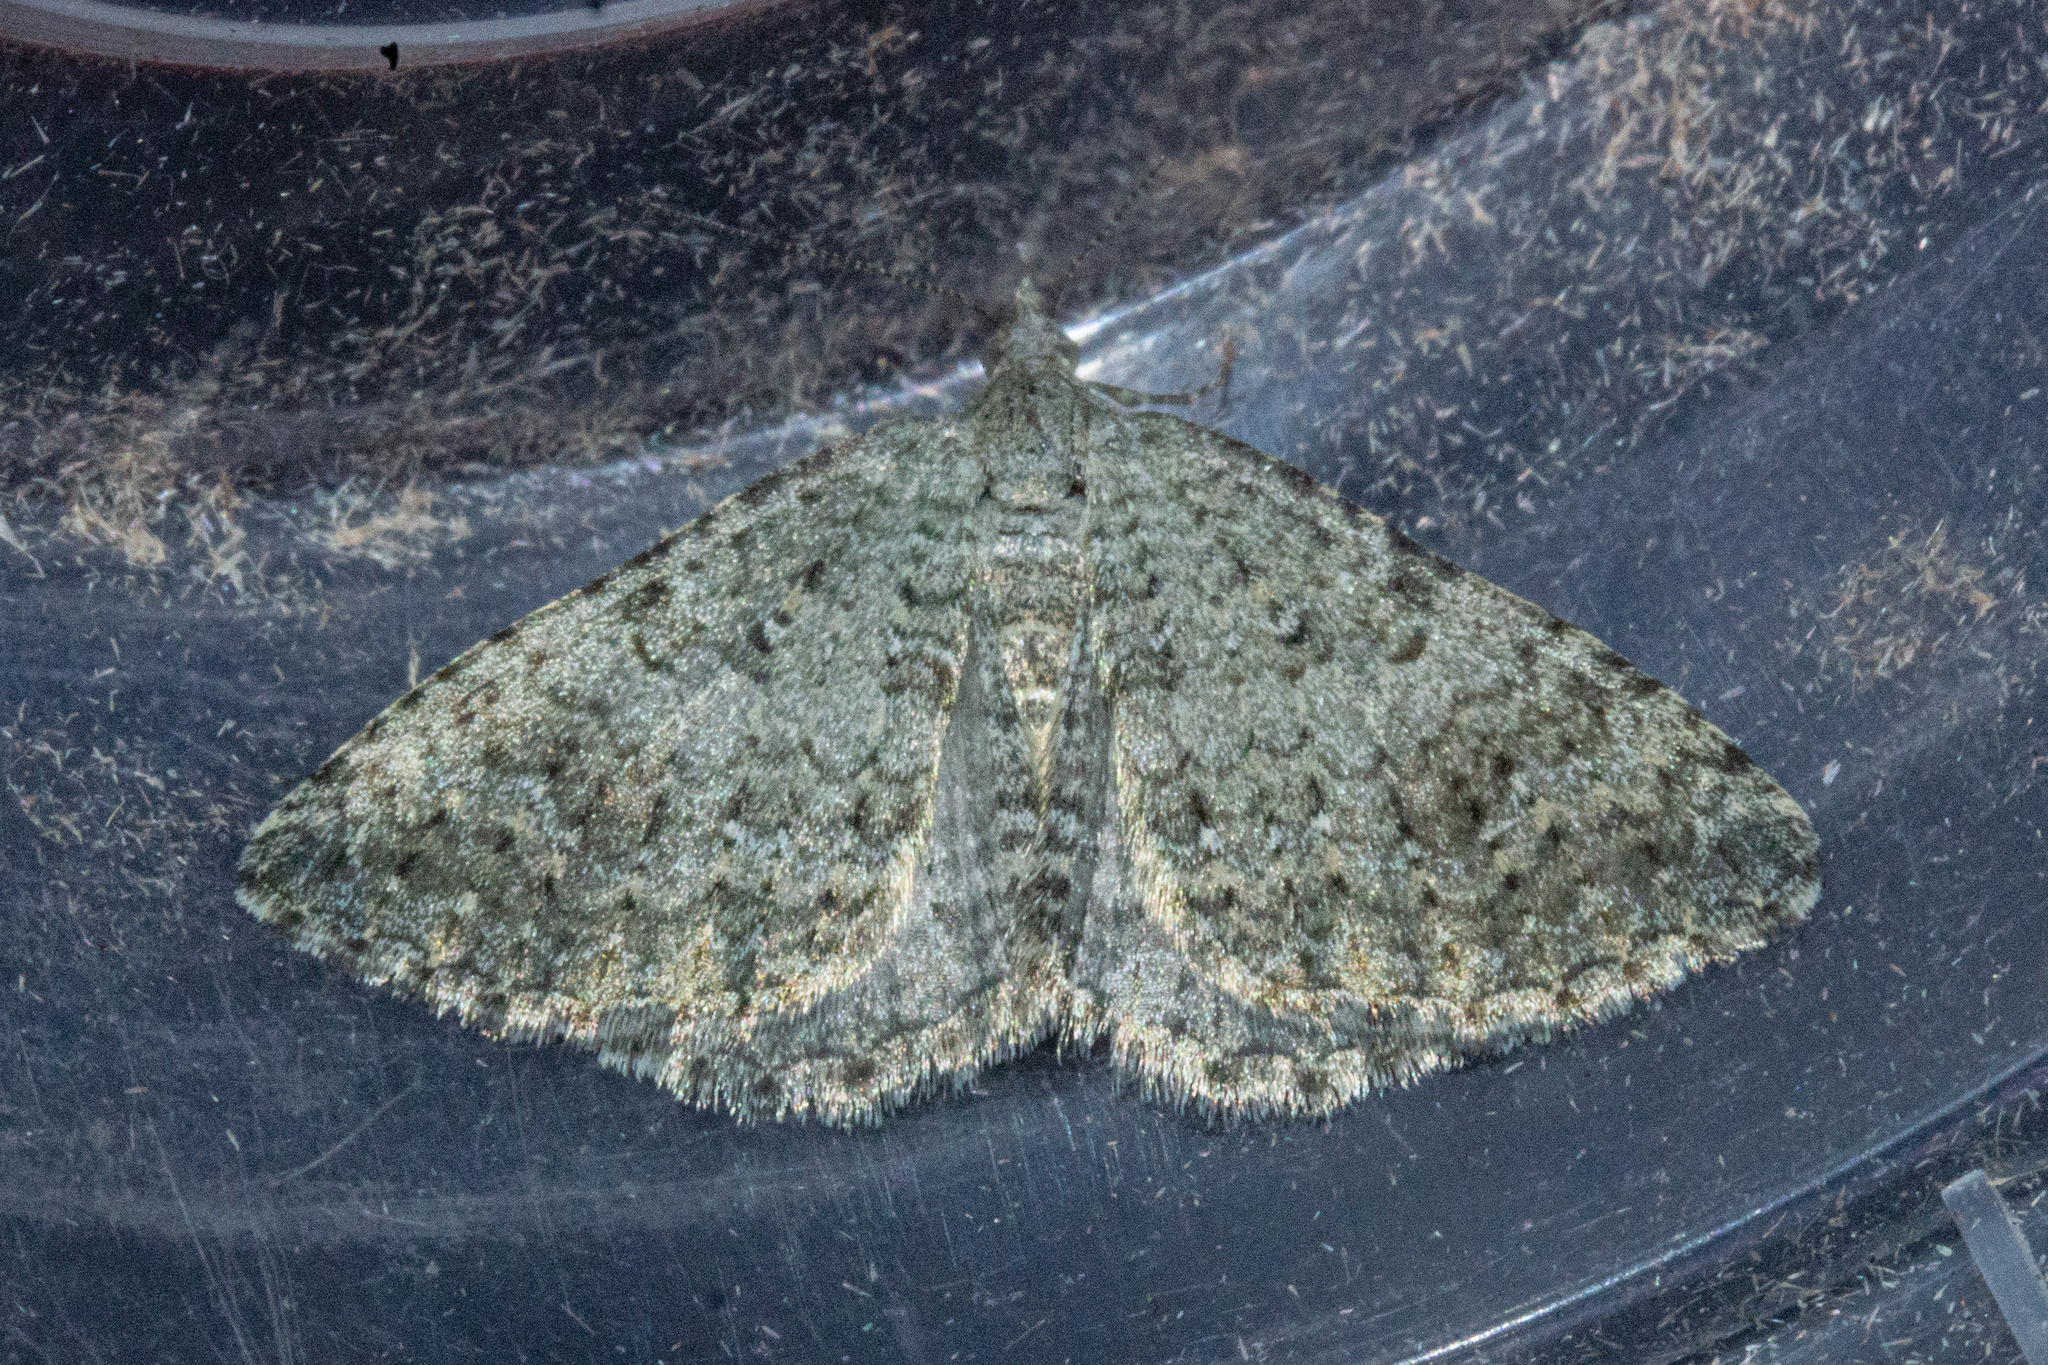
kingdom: Animalia
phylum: Arthropoda
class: Insecta
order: Lepidoptera
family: Geometridae
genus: Helastia
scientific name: Helastia corcularia
